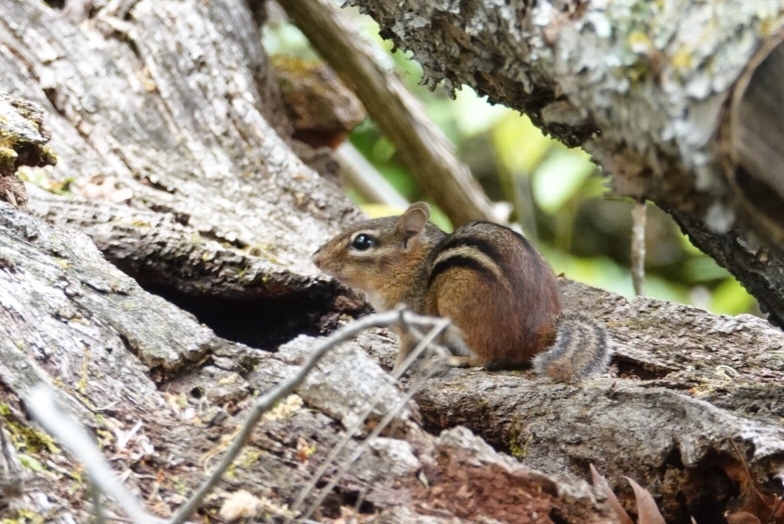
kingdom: Animalia
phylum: Chordata
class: Mammalia
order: Rodentia
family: Sciuridae
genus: Tamias
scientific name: Tamias striatus
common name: Eastern chipmunk
